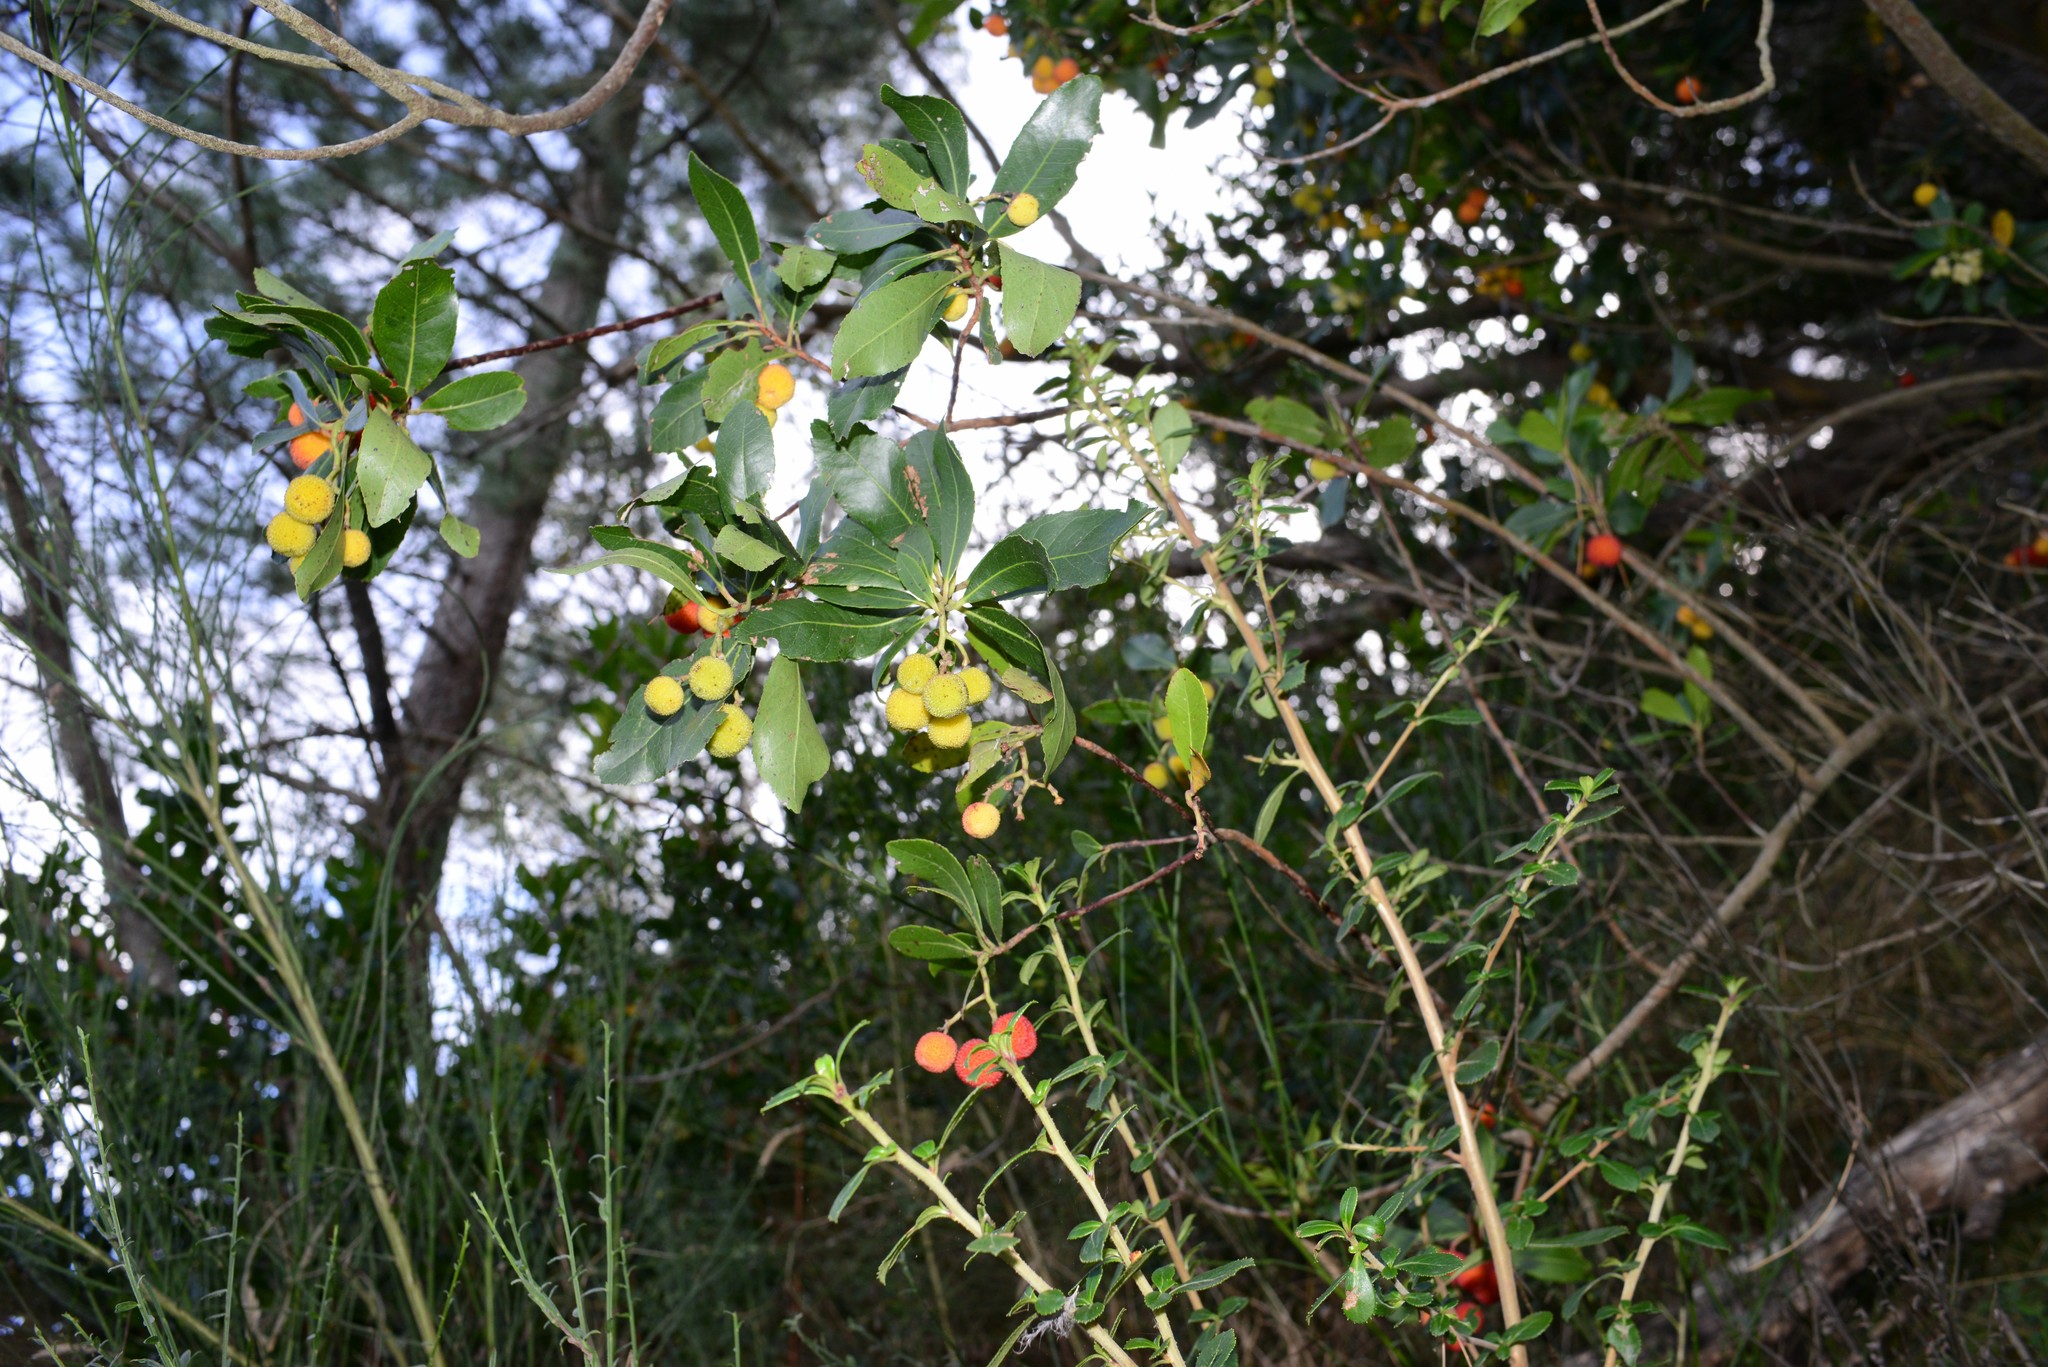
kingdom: Plantae
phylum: Tracheophyta
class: Magnoliopsida
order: Ericales
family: Ericaceae
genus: Arbutus
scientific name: Arbutus unedo
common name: Strawberry-tree
